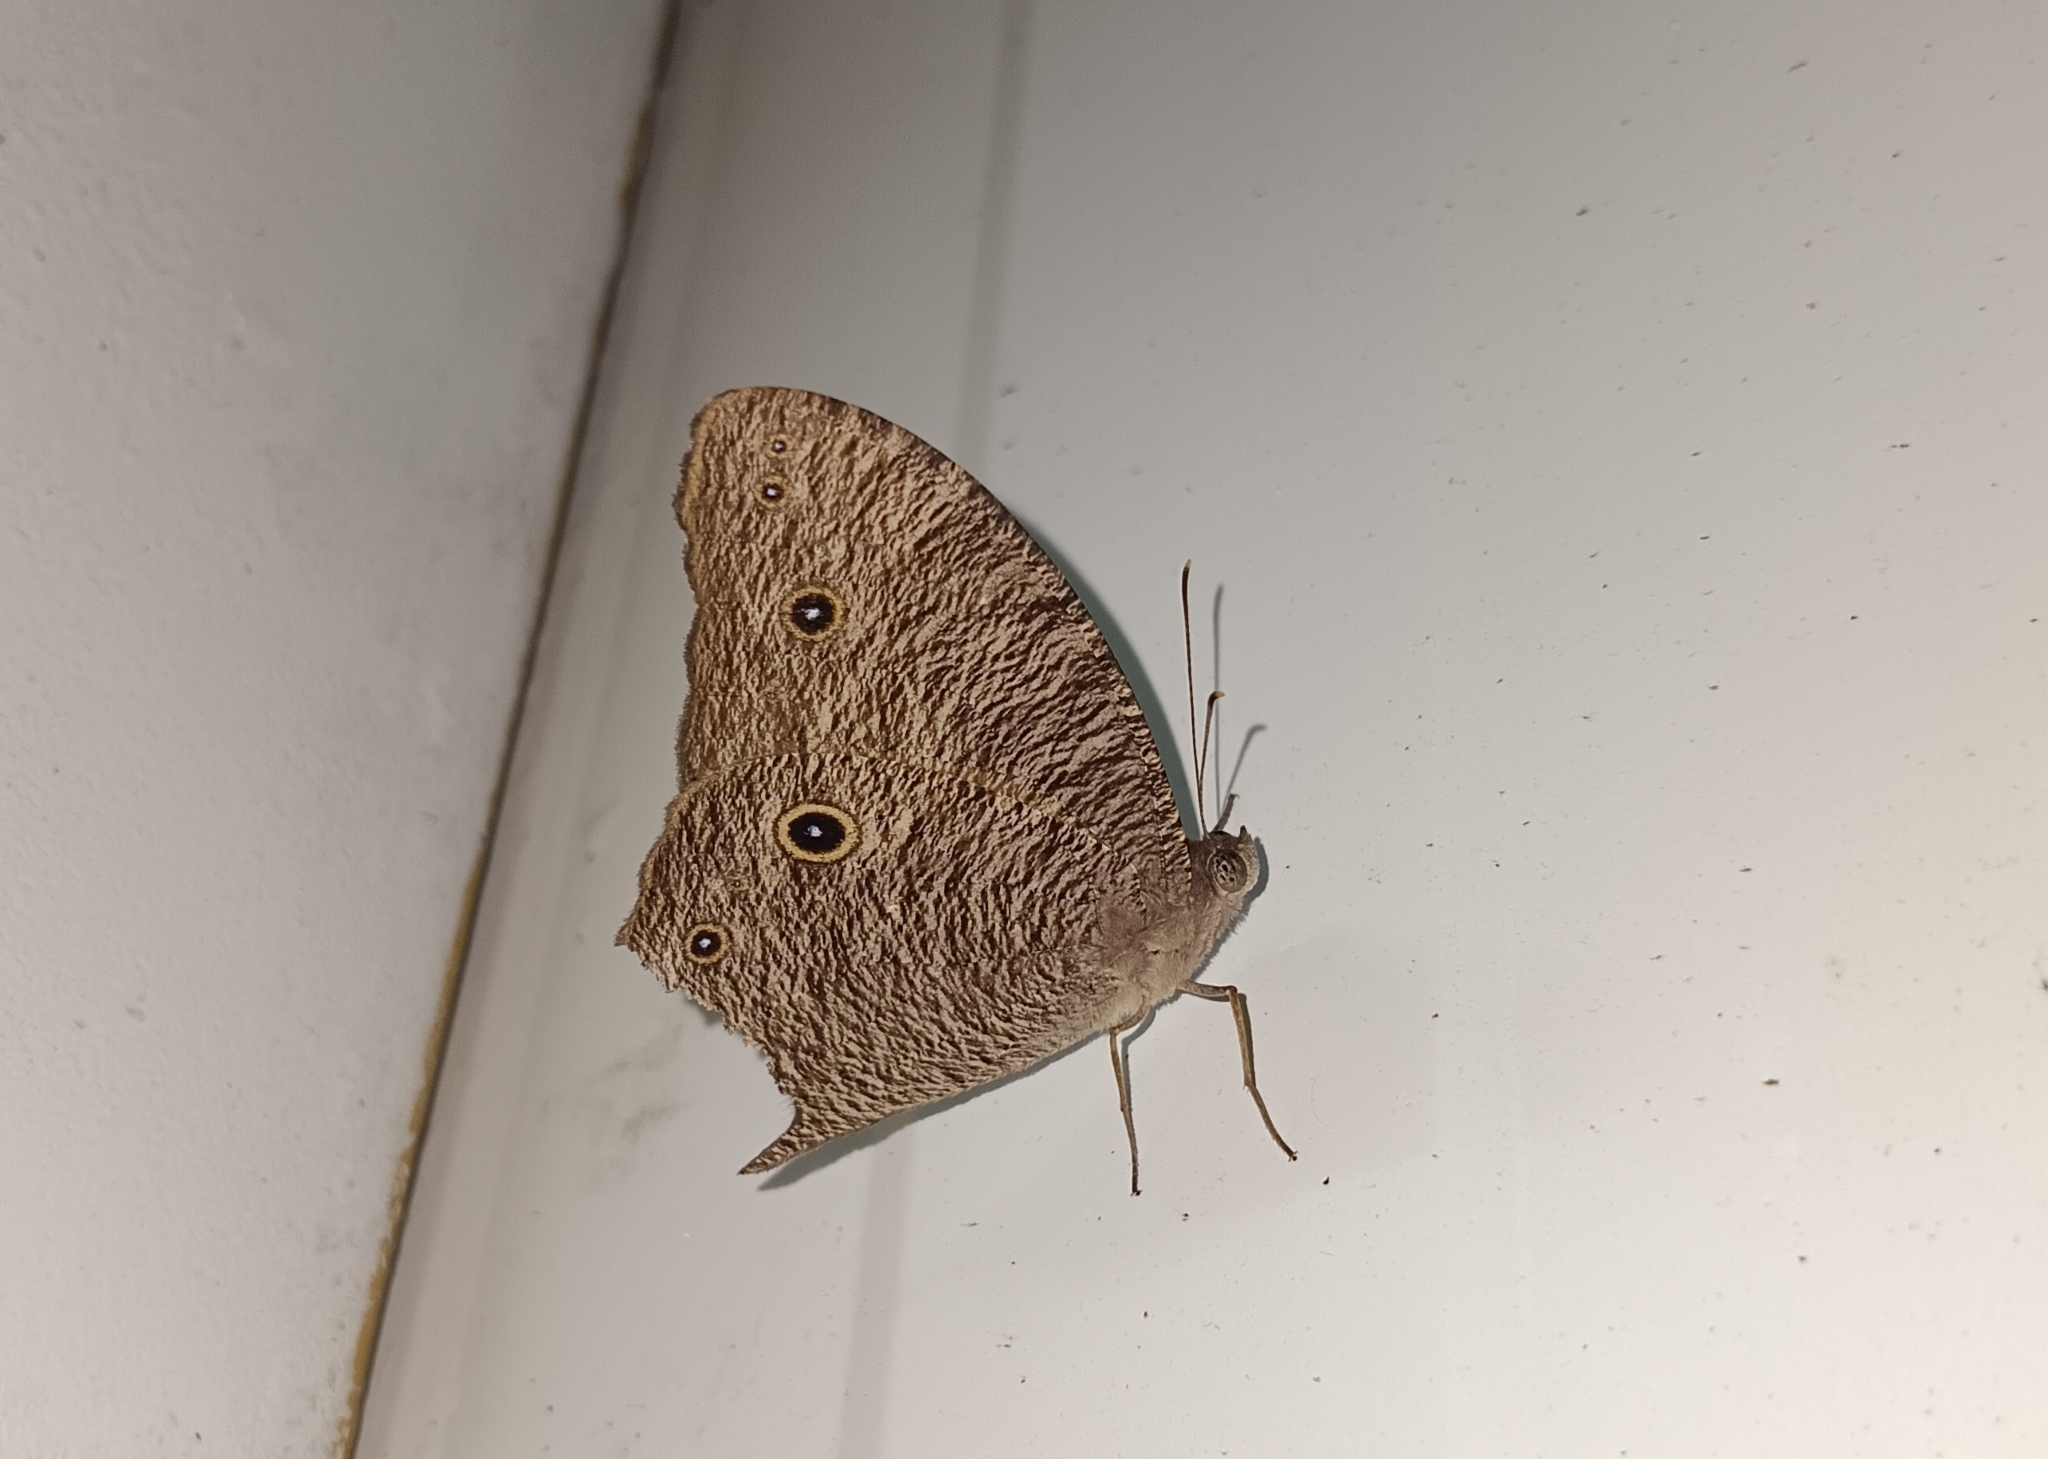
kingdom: Animalia
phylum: Arthropoda
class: Insecta
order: Lepidoptera
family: Nymphalidae
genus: Melanitis
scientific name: Melanitis leda
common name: Twilight brown
